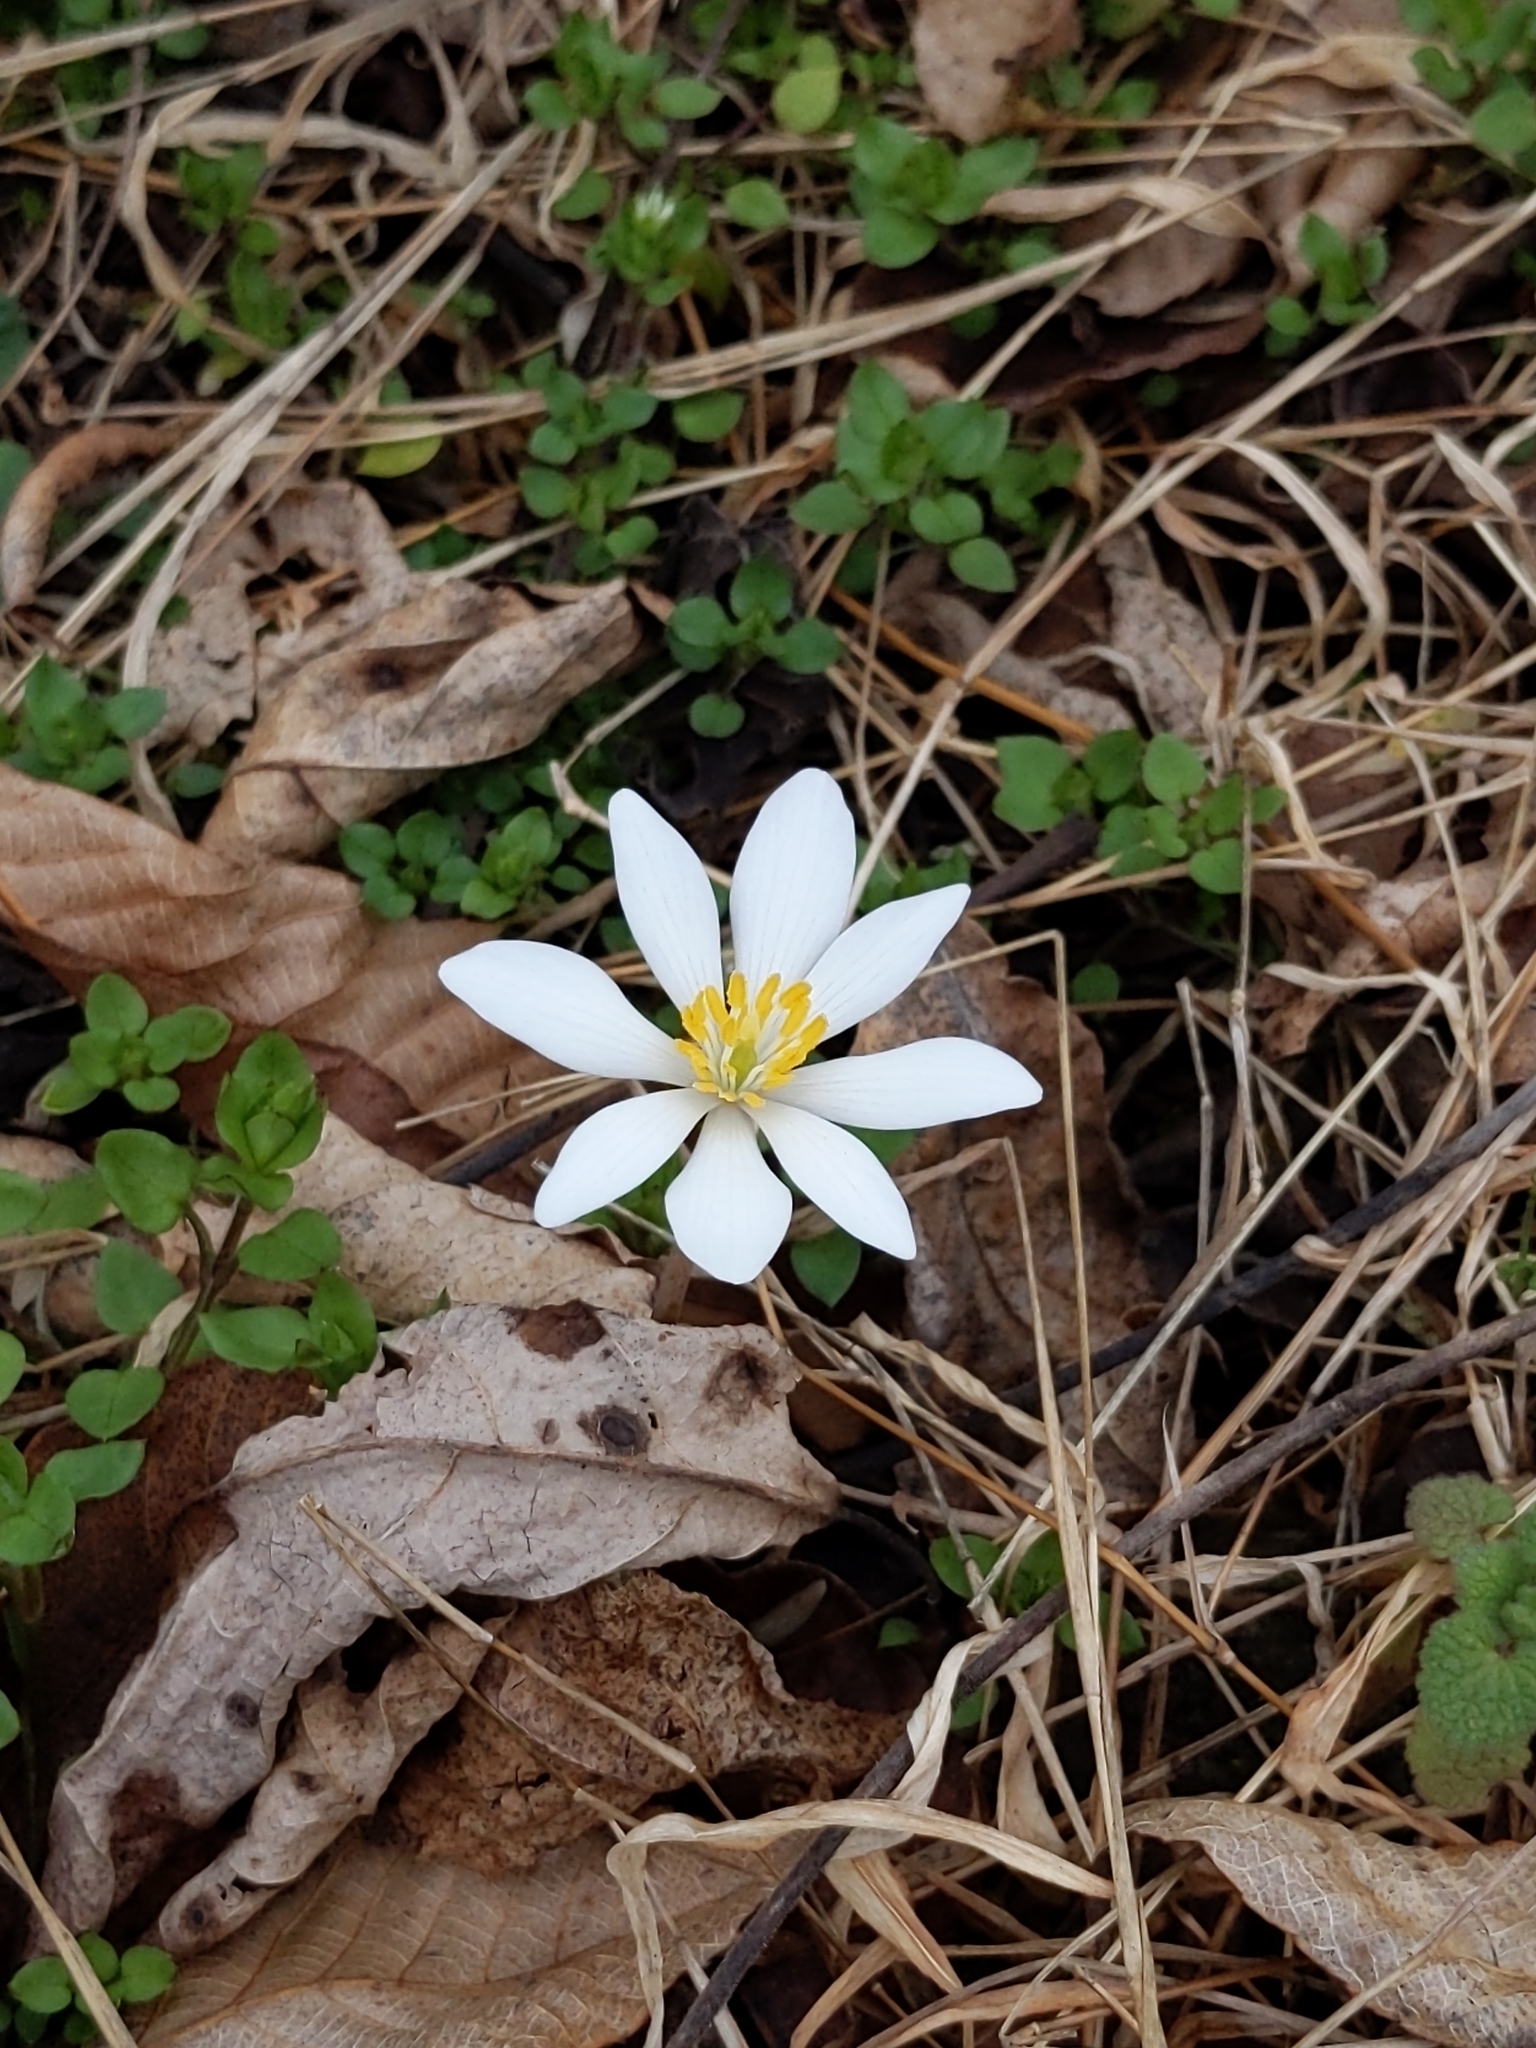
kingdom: Plantae
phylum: Tracheophyta
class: Magnoliopsida
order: Ranunculales
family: Papaveraceae
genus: Sanguinaria
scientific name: Sanguinaria canadensis
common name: Bloodroot
